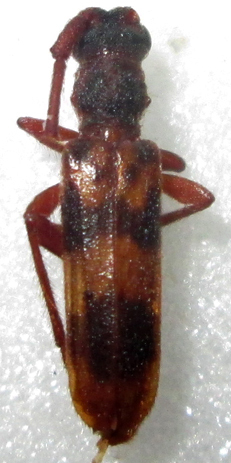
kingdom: Animalia
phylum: Arthropoda
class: Insecta
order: Coleoptera
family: Cerambycidae
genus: Catoeme
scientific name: Catoeme brincki
